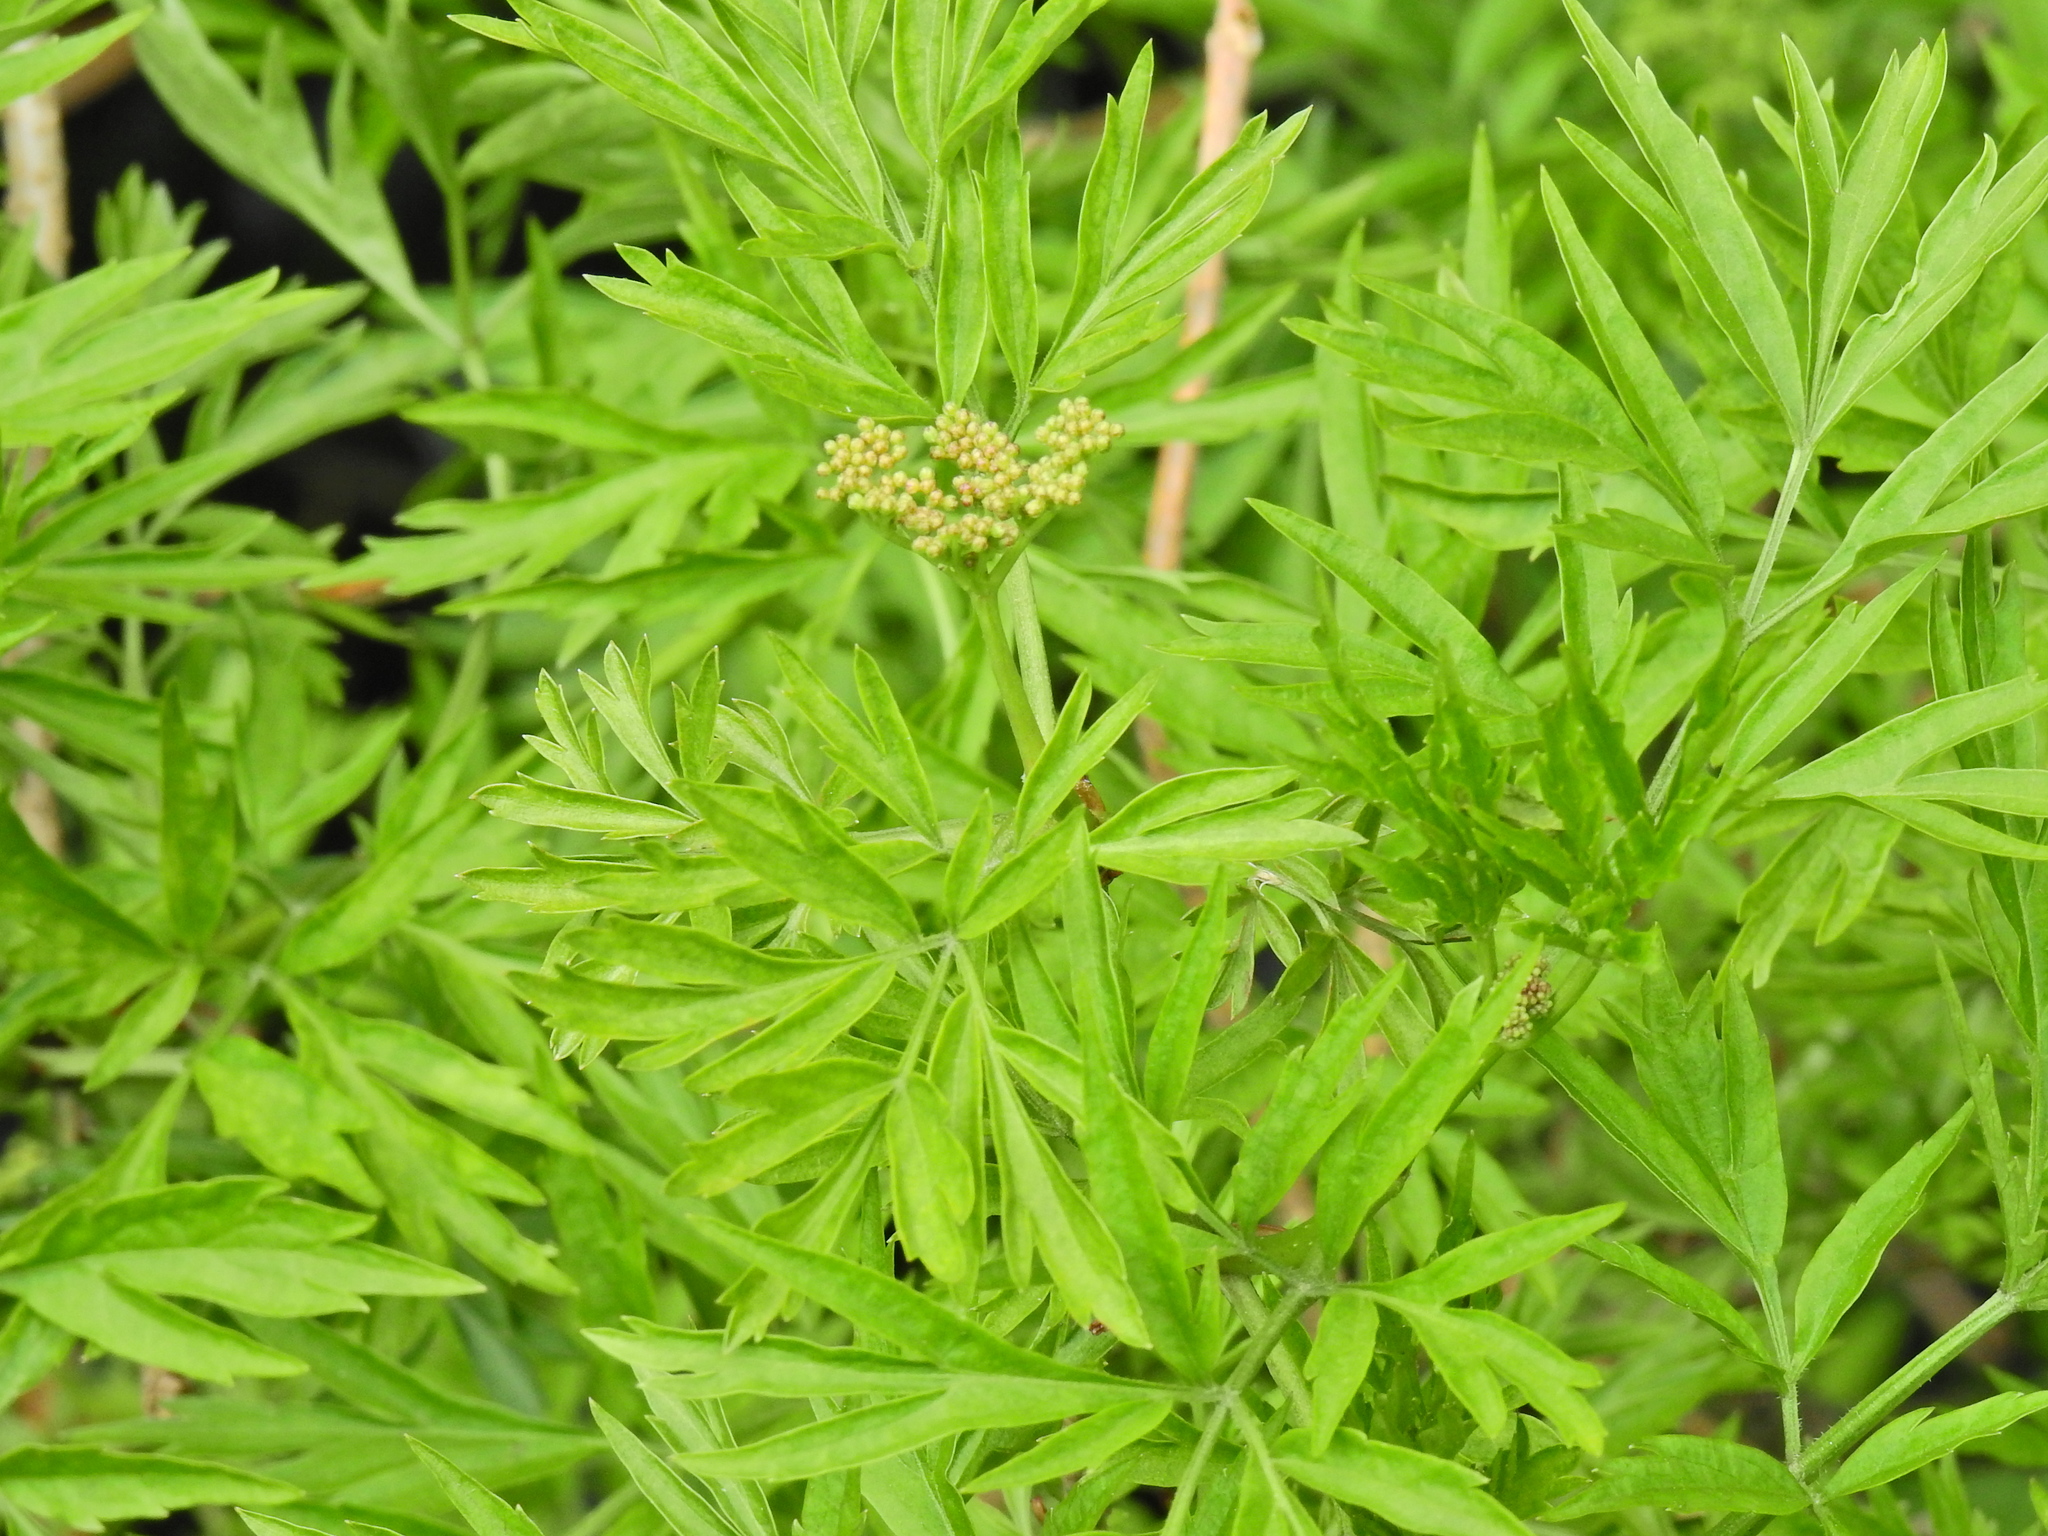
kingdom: Plantae
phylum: Tracheophyta
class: Magnoliopsida
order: Dipsacales
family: Viburnaceae
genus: Sambucus
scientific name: Sambucus nigra
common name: Elder
